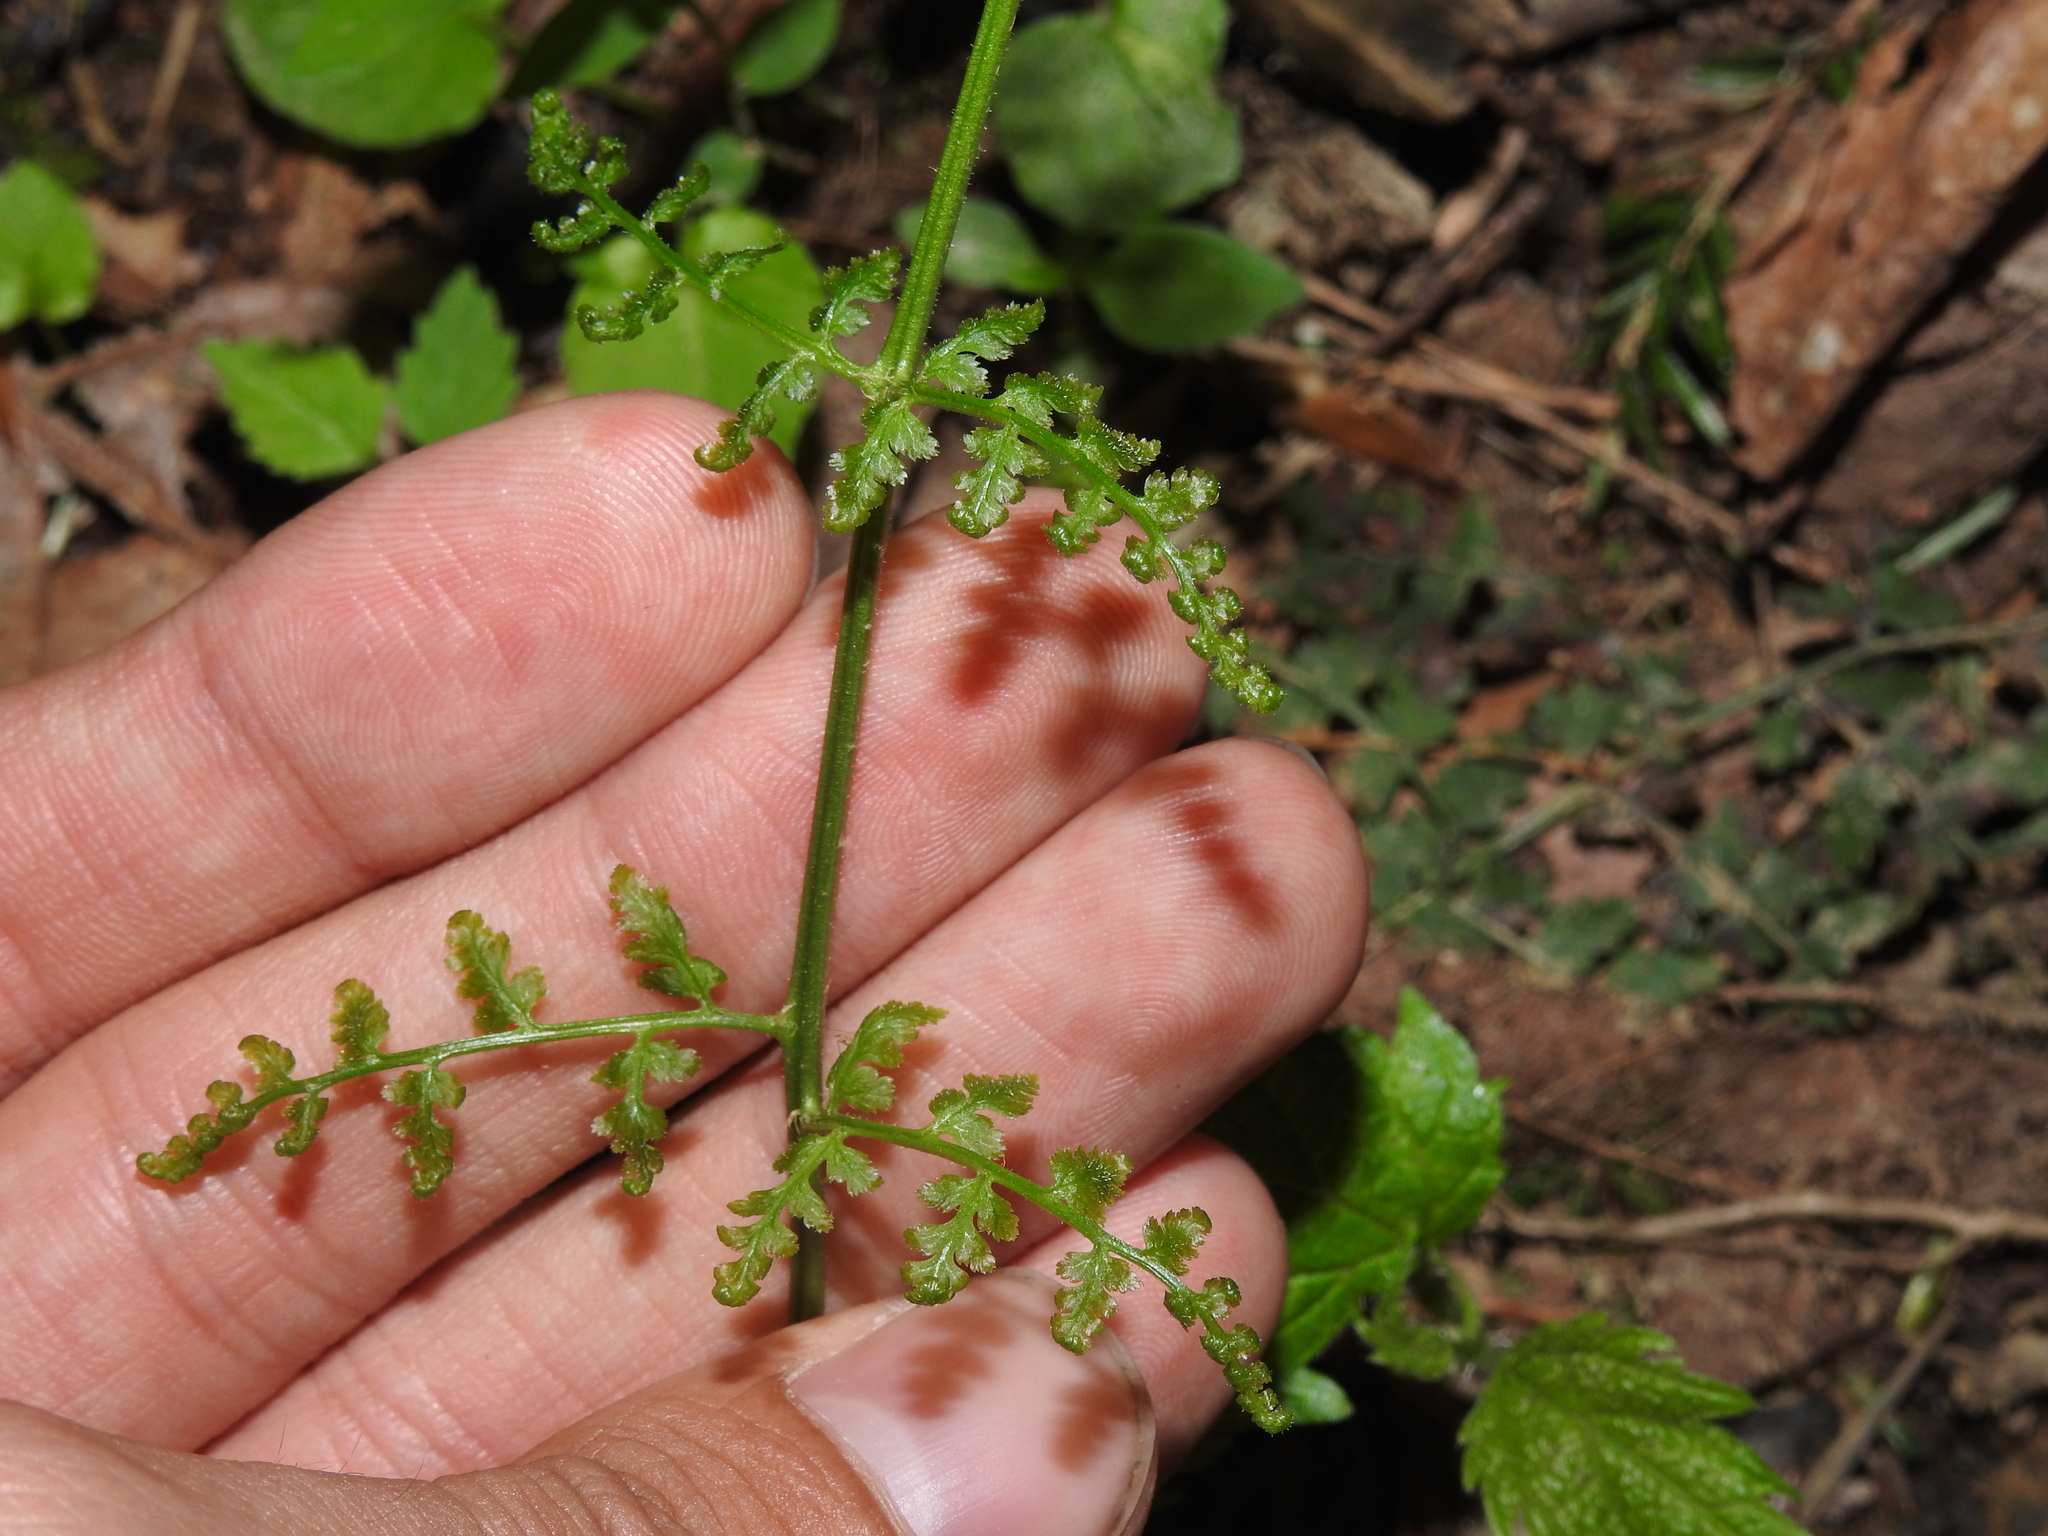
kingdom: Plantae
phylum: Tracheophyta
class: Polypodiopsida
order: Polypodiales
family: Dryopteridaceae
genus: Dryopteris
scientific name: Dryopteris intermedia
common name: Evergreen wood fern
